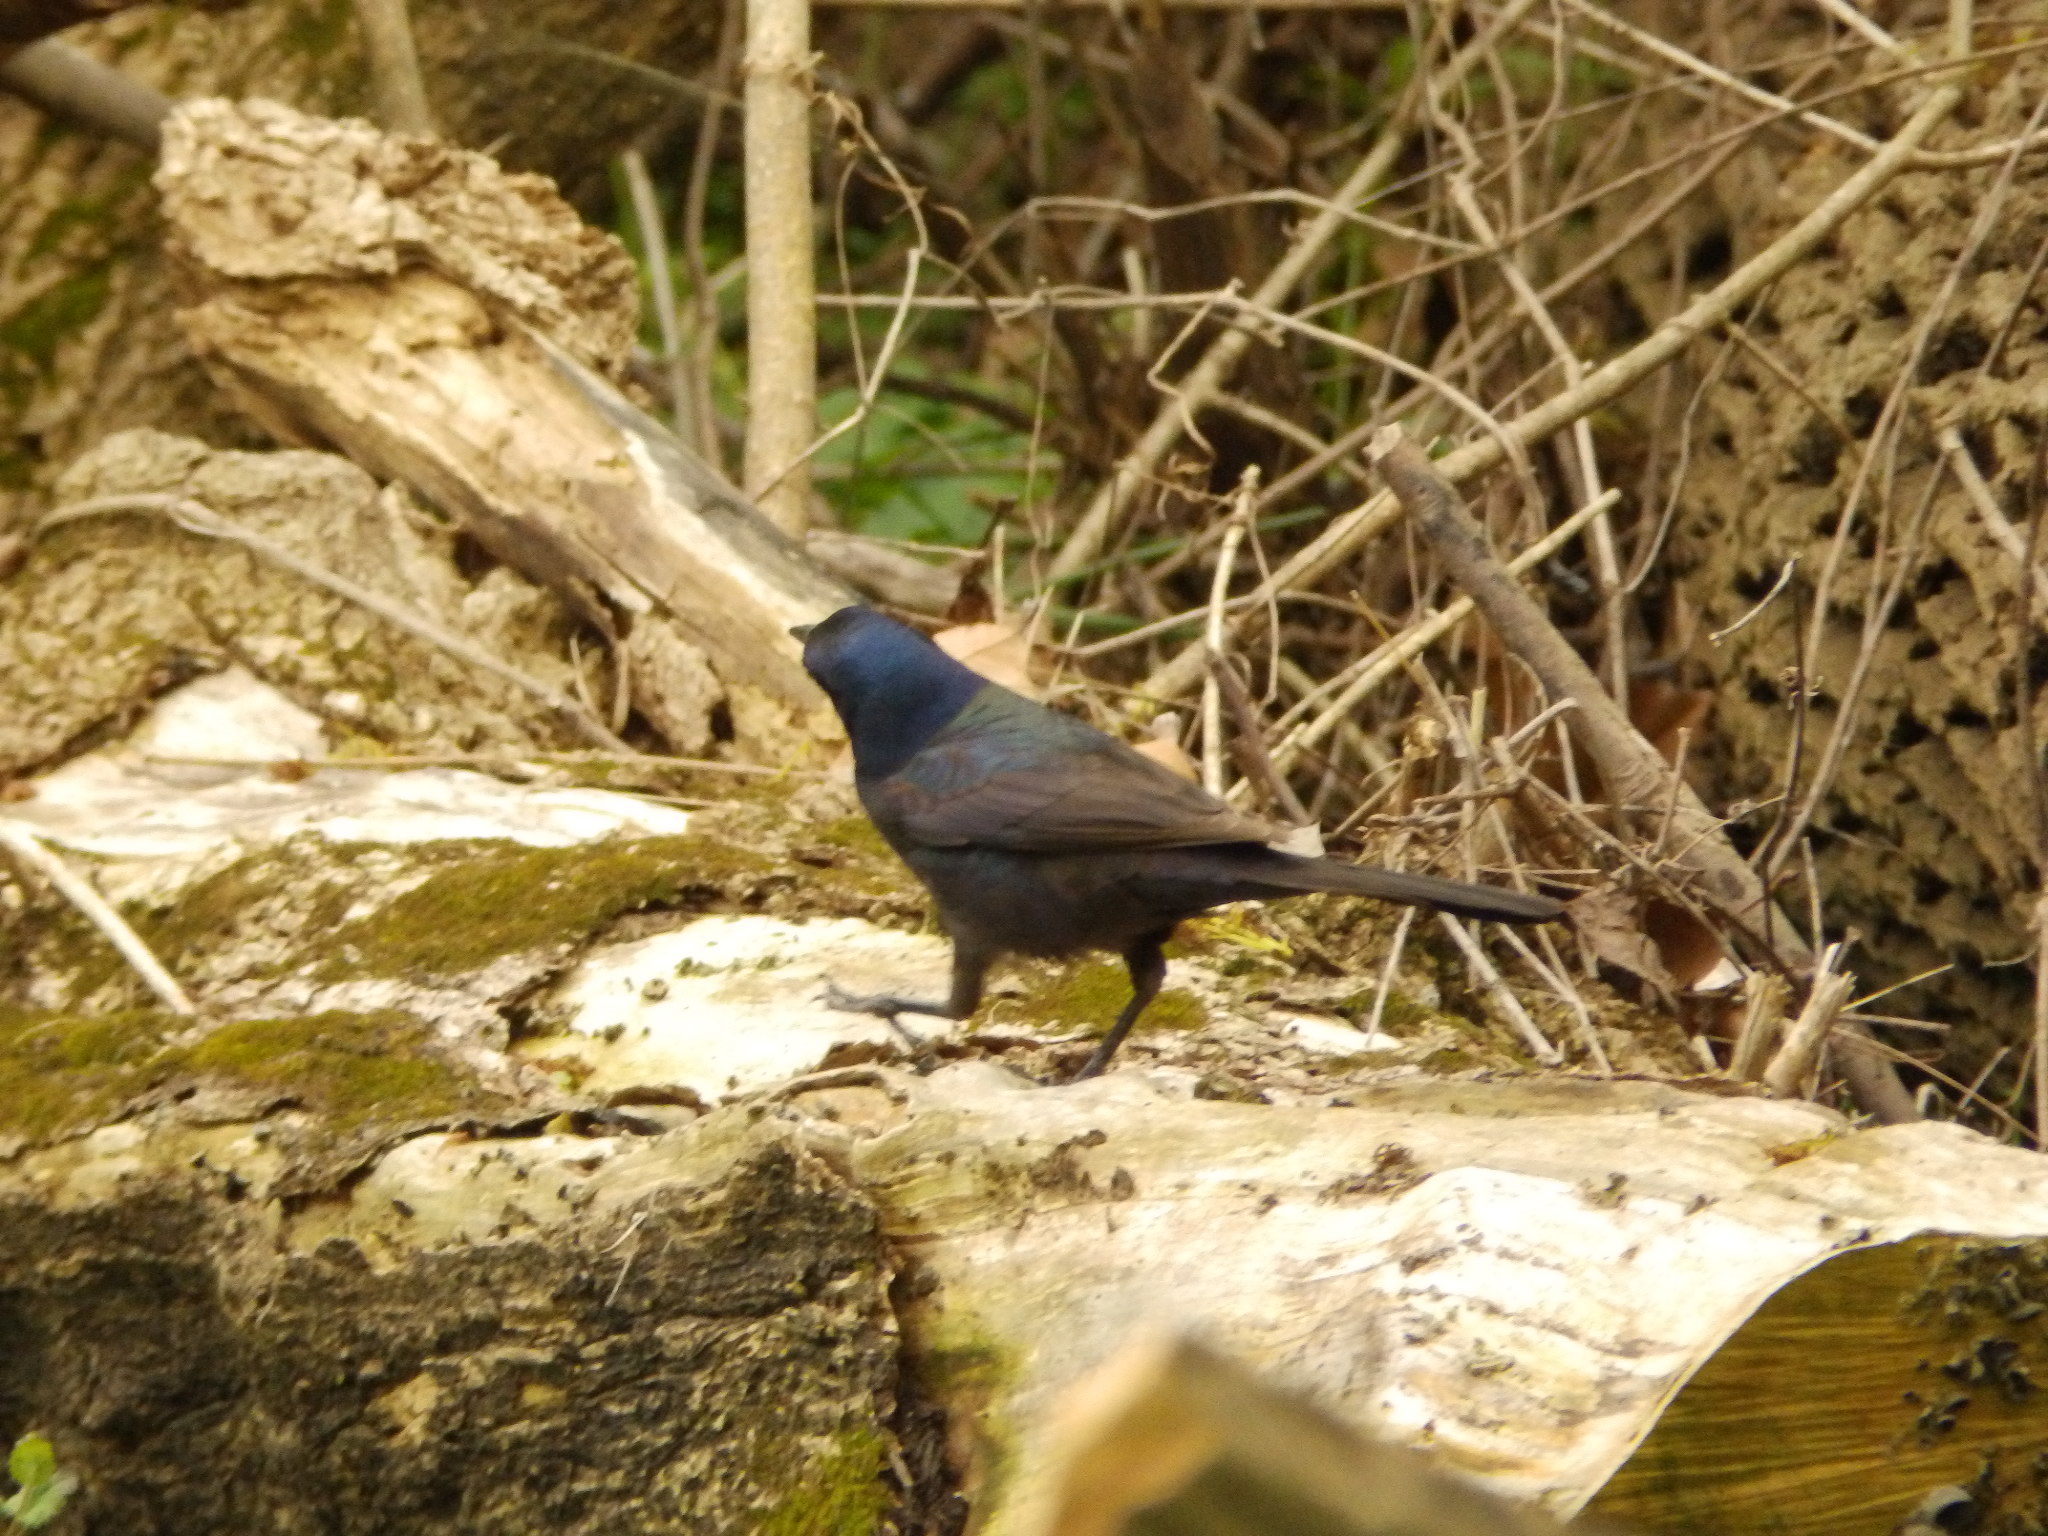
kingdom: Animalia
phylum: Chordata
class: Aves
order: Passeriformes
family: Icteridae
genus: Quiscalus
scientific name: Quiscalus quiscula
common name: Common grackle
